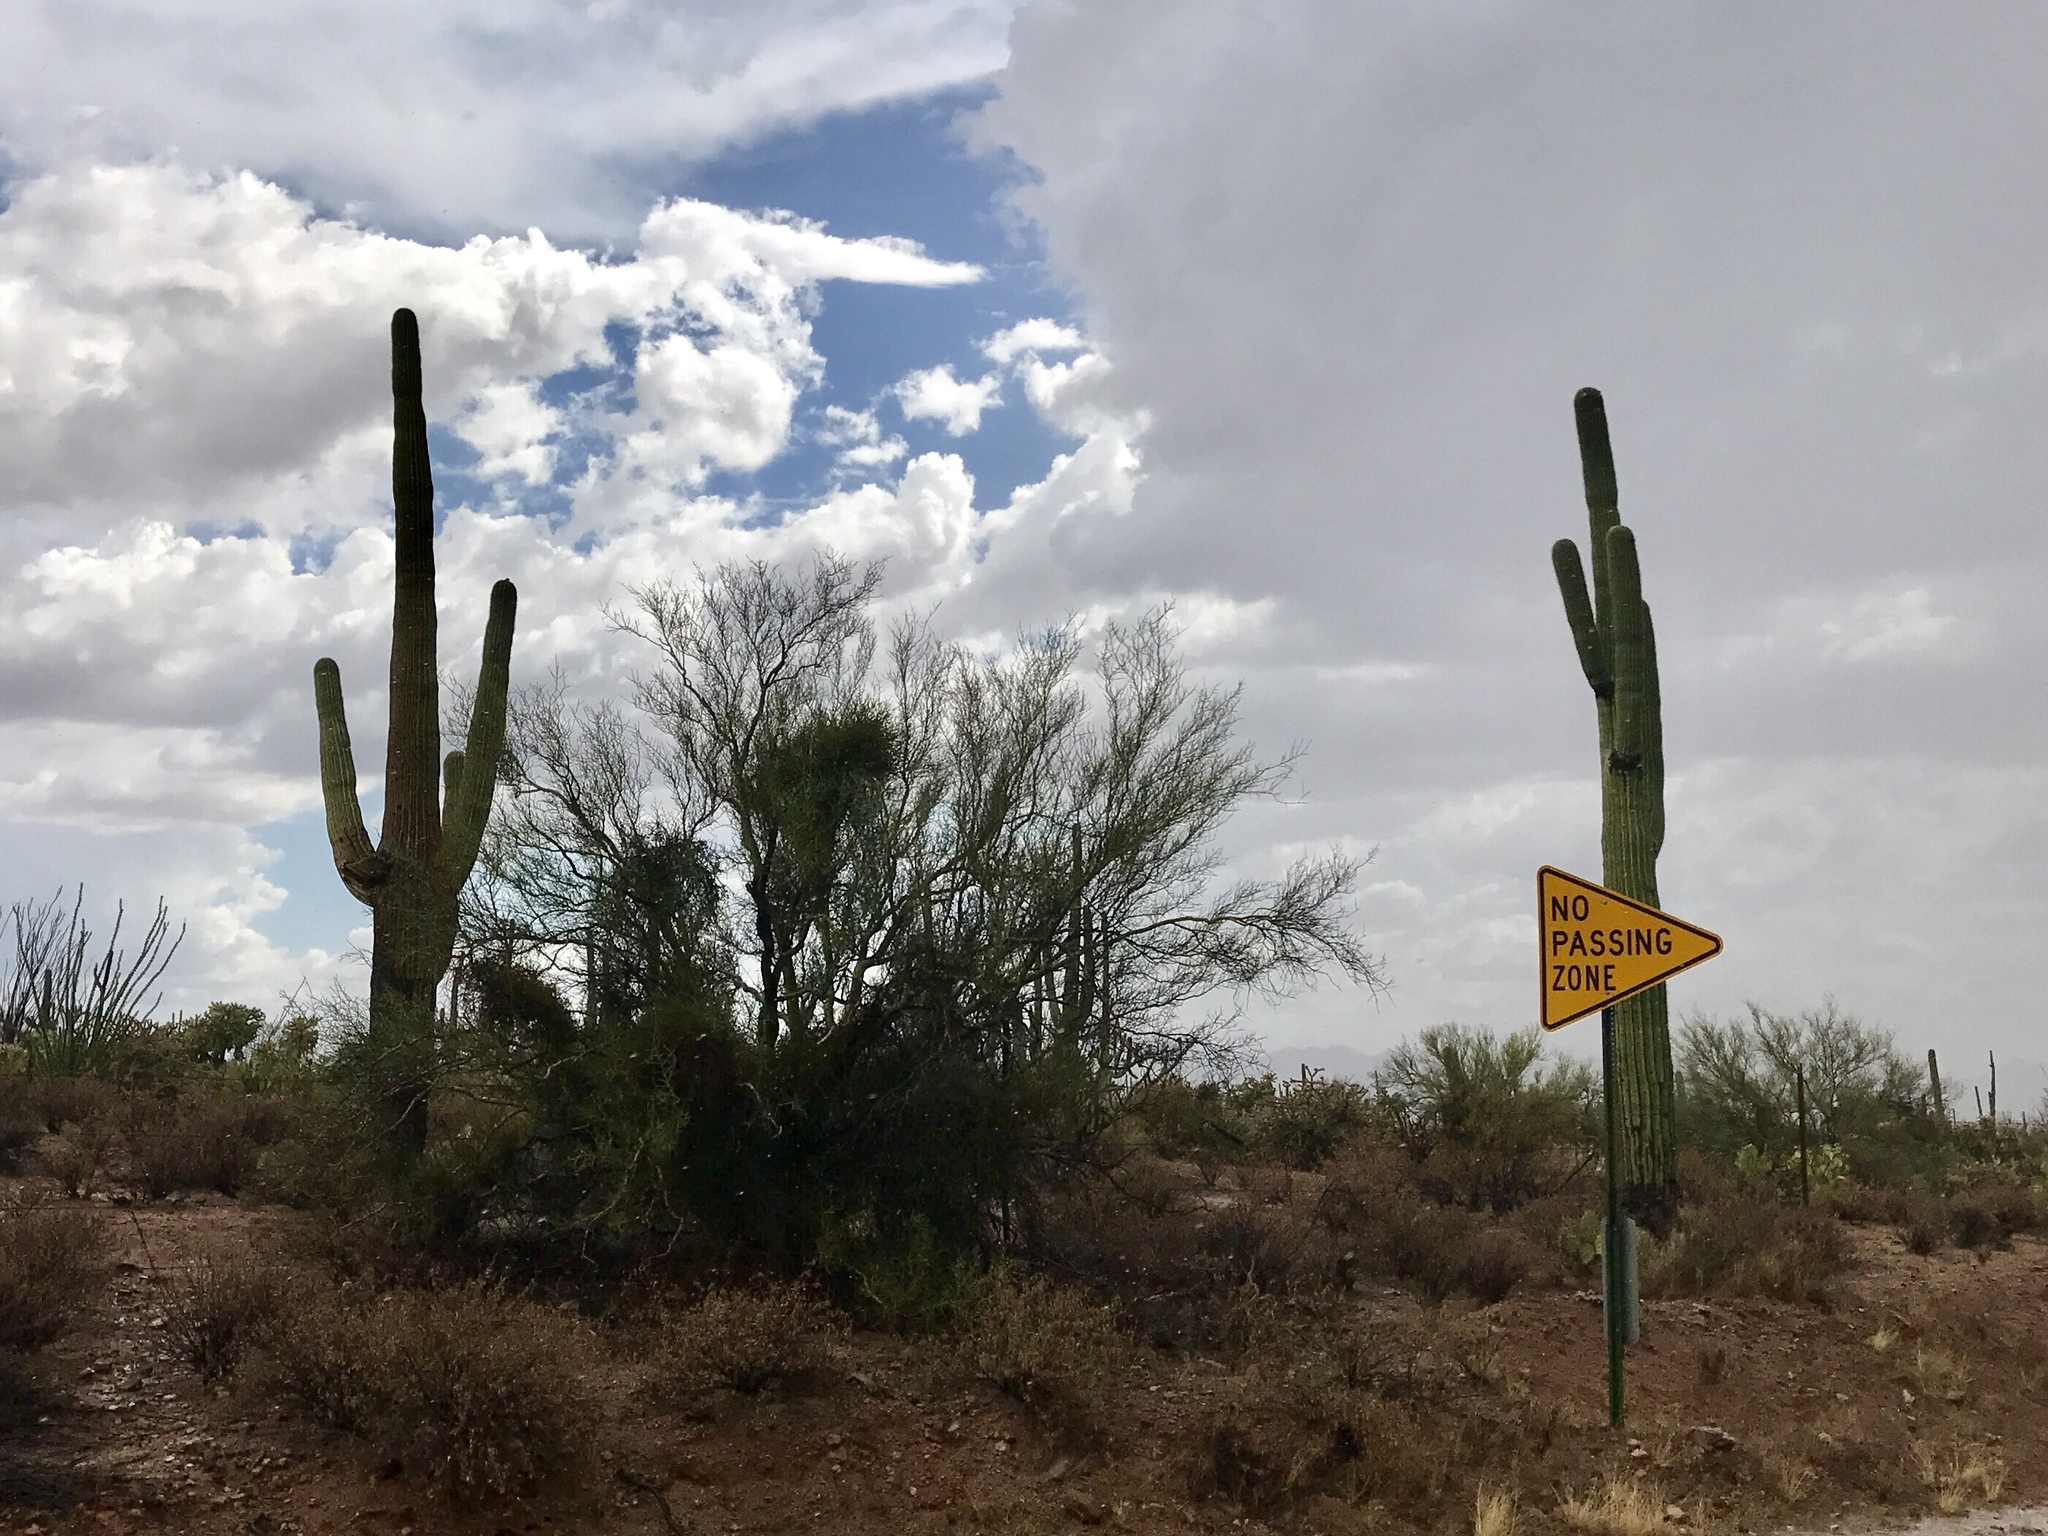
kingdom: Plantae
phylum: Tracheophyta
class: Magnoliopsida
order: Caryophyllales
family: Cactaceae
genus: Carnegiea
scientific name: Carnegiea gigantea
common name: Saguaro
